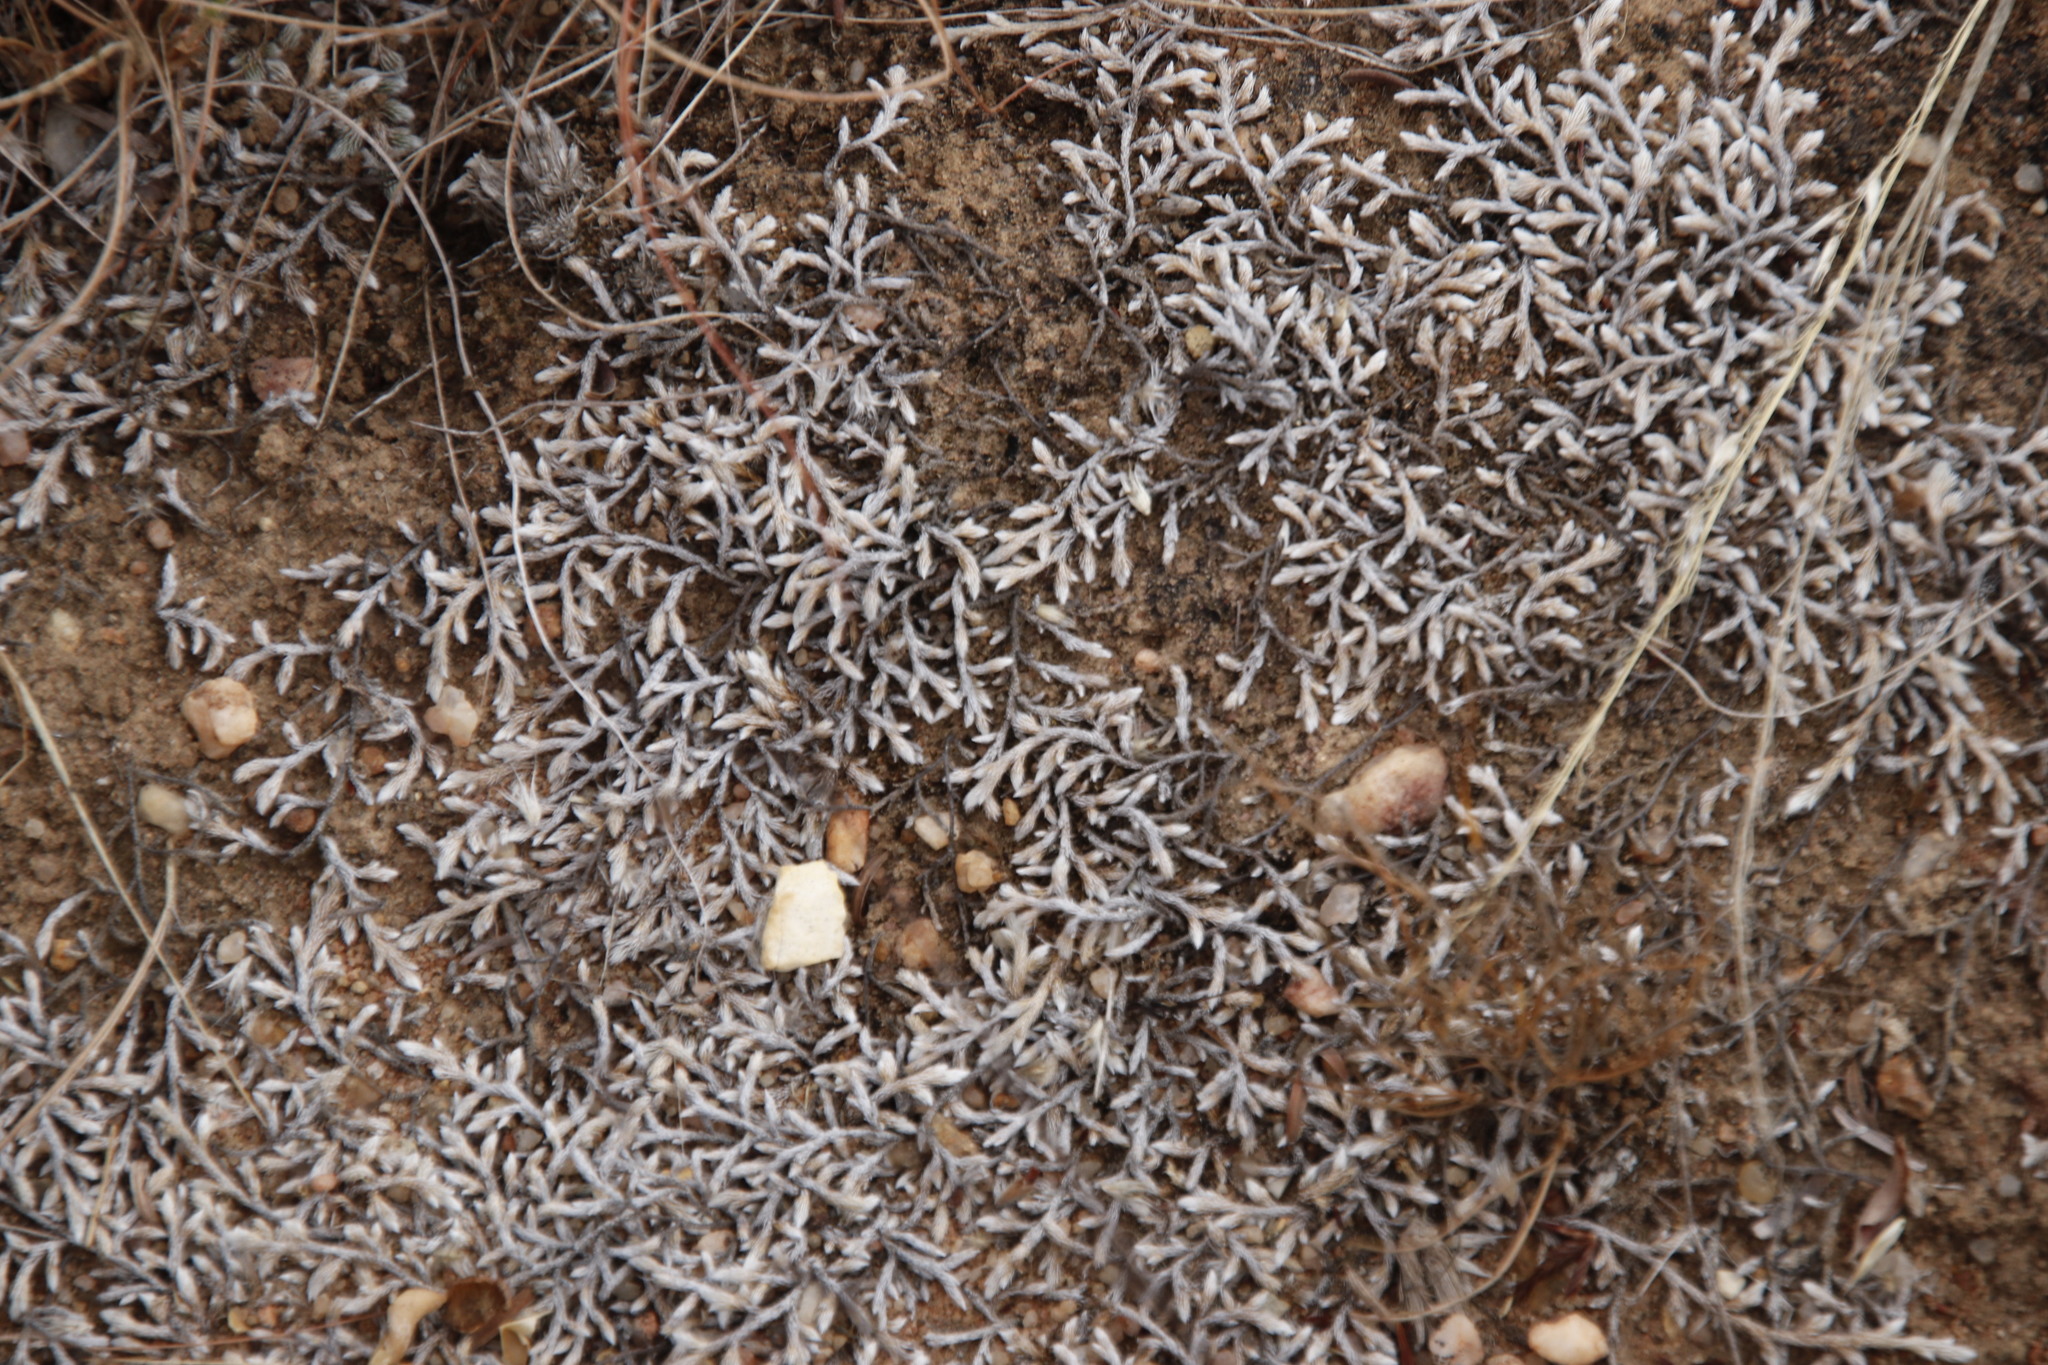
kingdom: Plantae
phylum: Tracheophyta
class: Lycopodiopsida
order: Selaginellales
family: Selaginellaceae
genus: Selaginella
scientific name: Selaginella dregei
